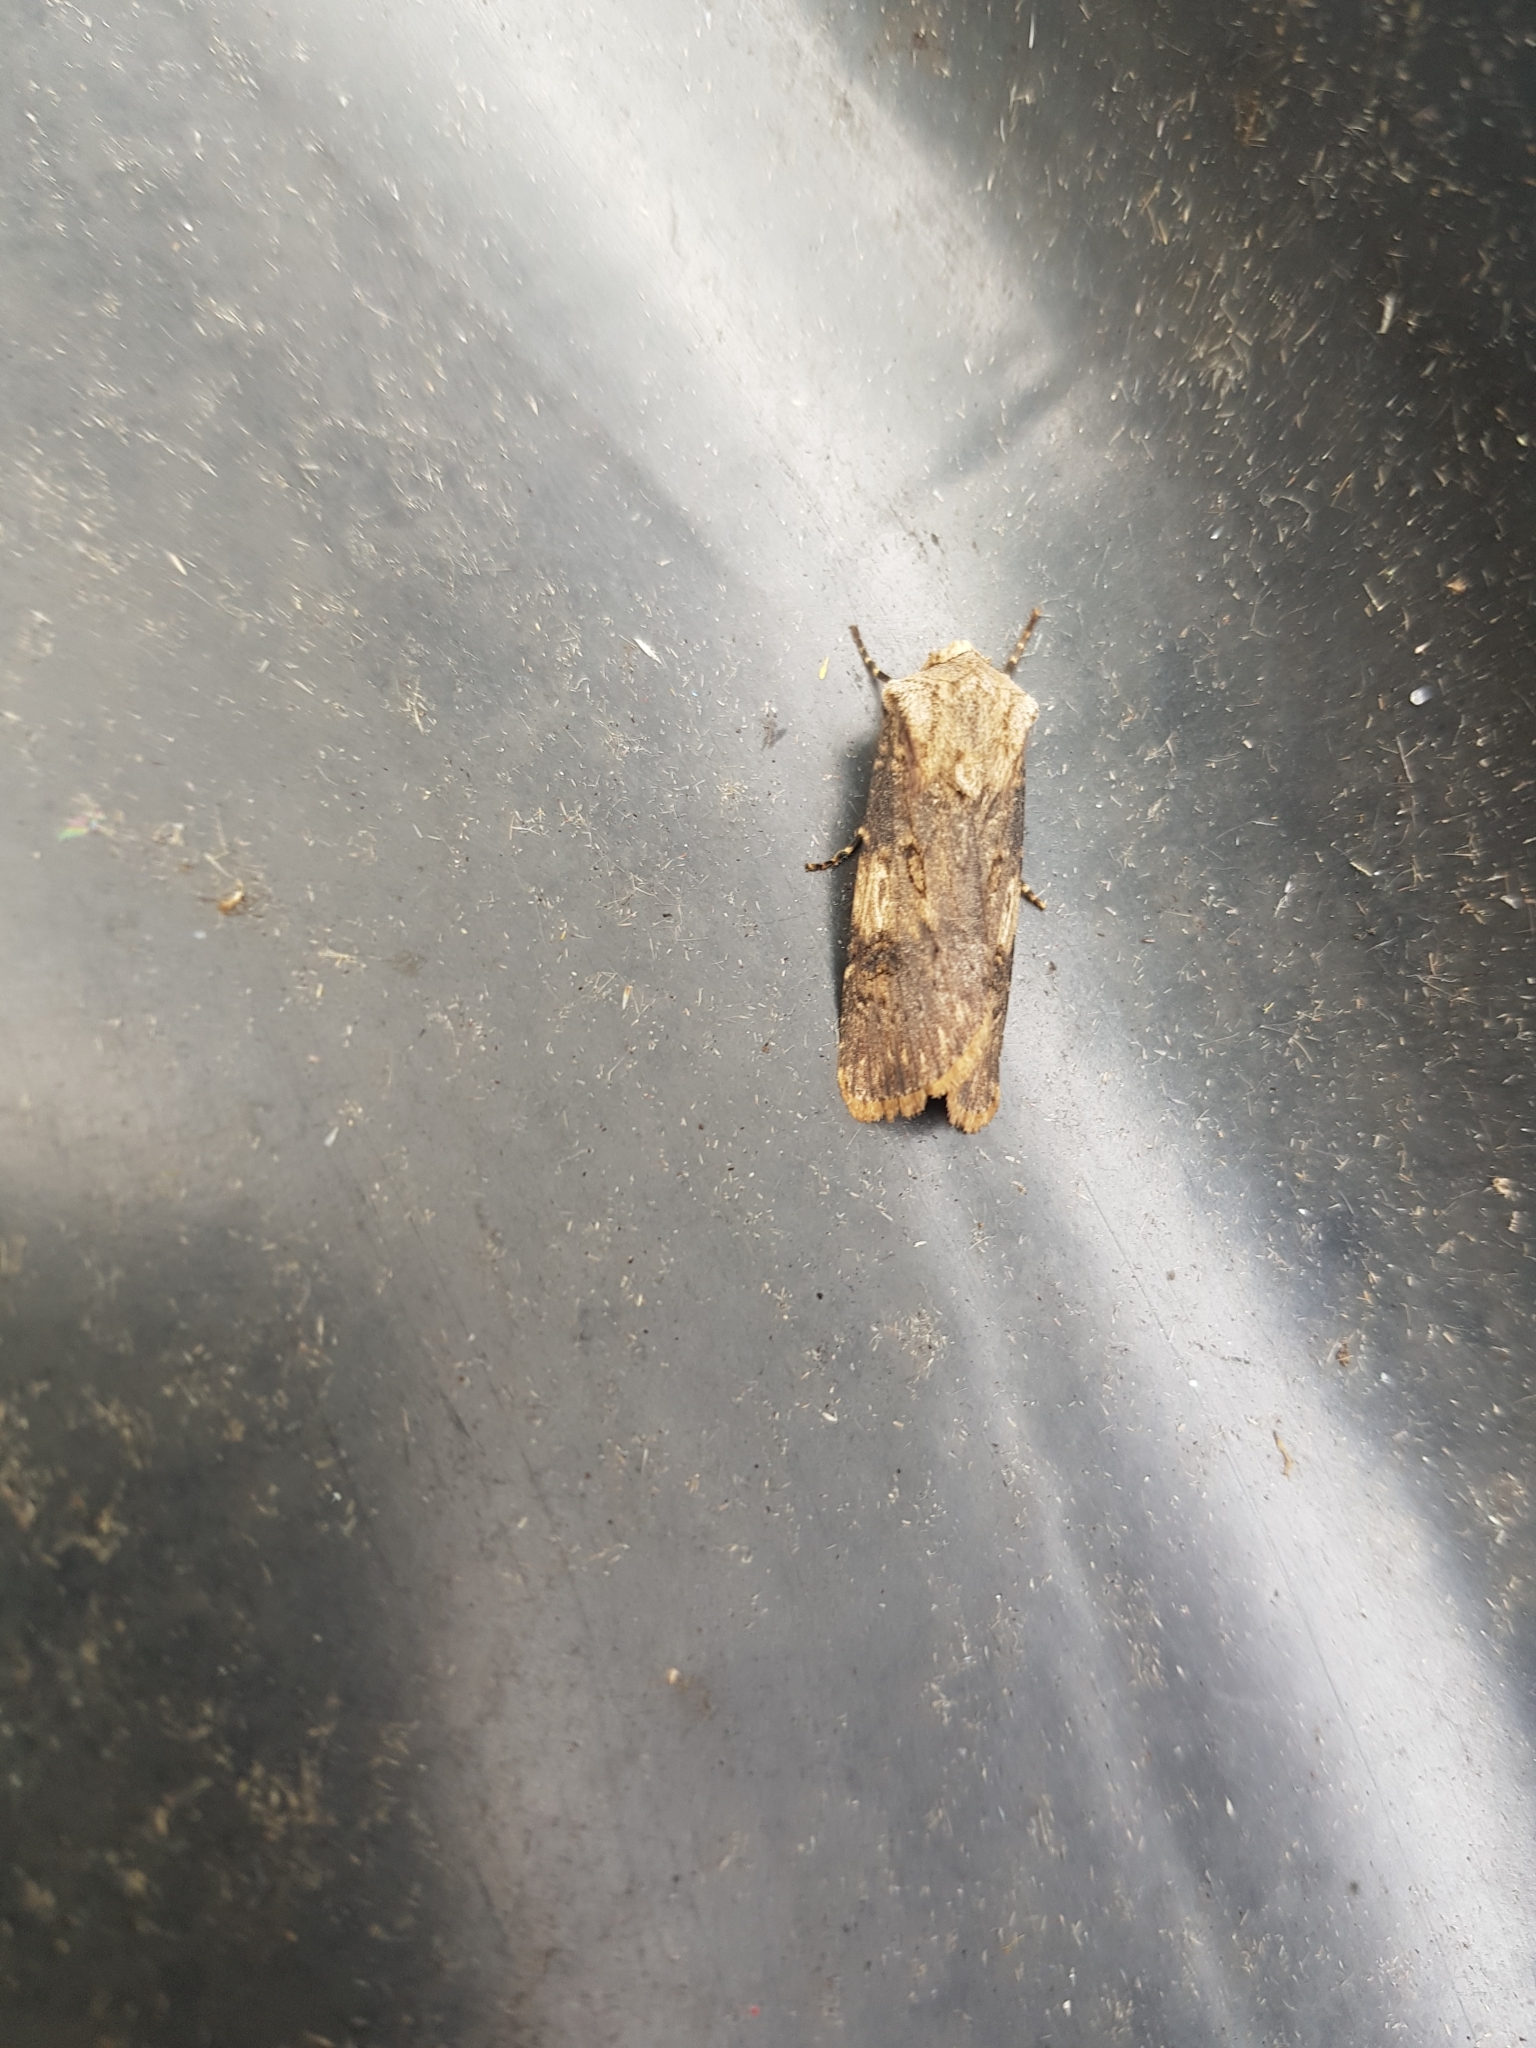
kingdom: Animalia
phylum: Arthropoda
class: Insecta
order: Lepidoptera
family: Noctuidae
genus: Agrotis
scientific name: Agrotis puta
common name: Shuttle-shaped dart
